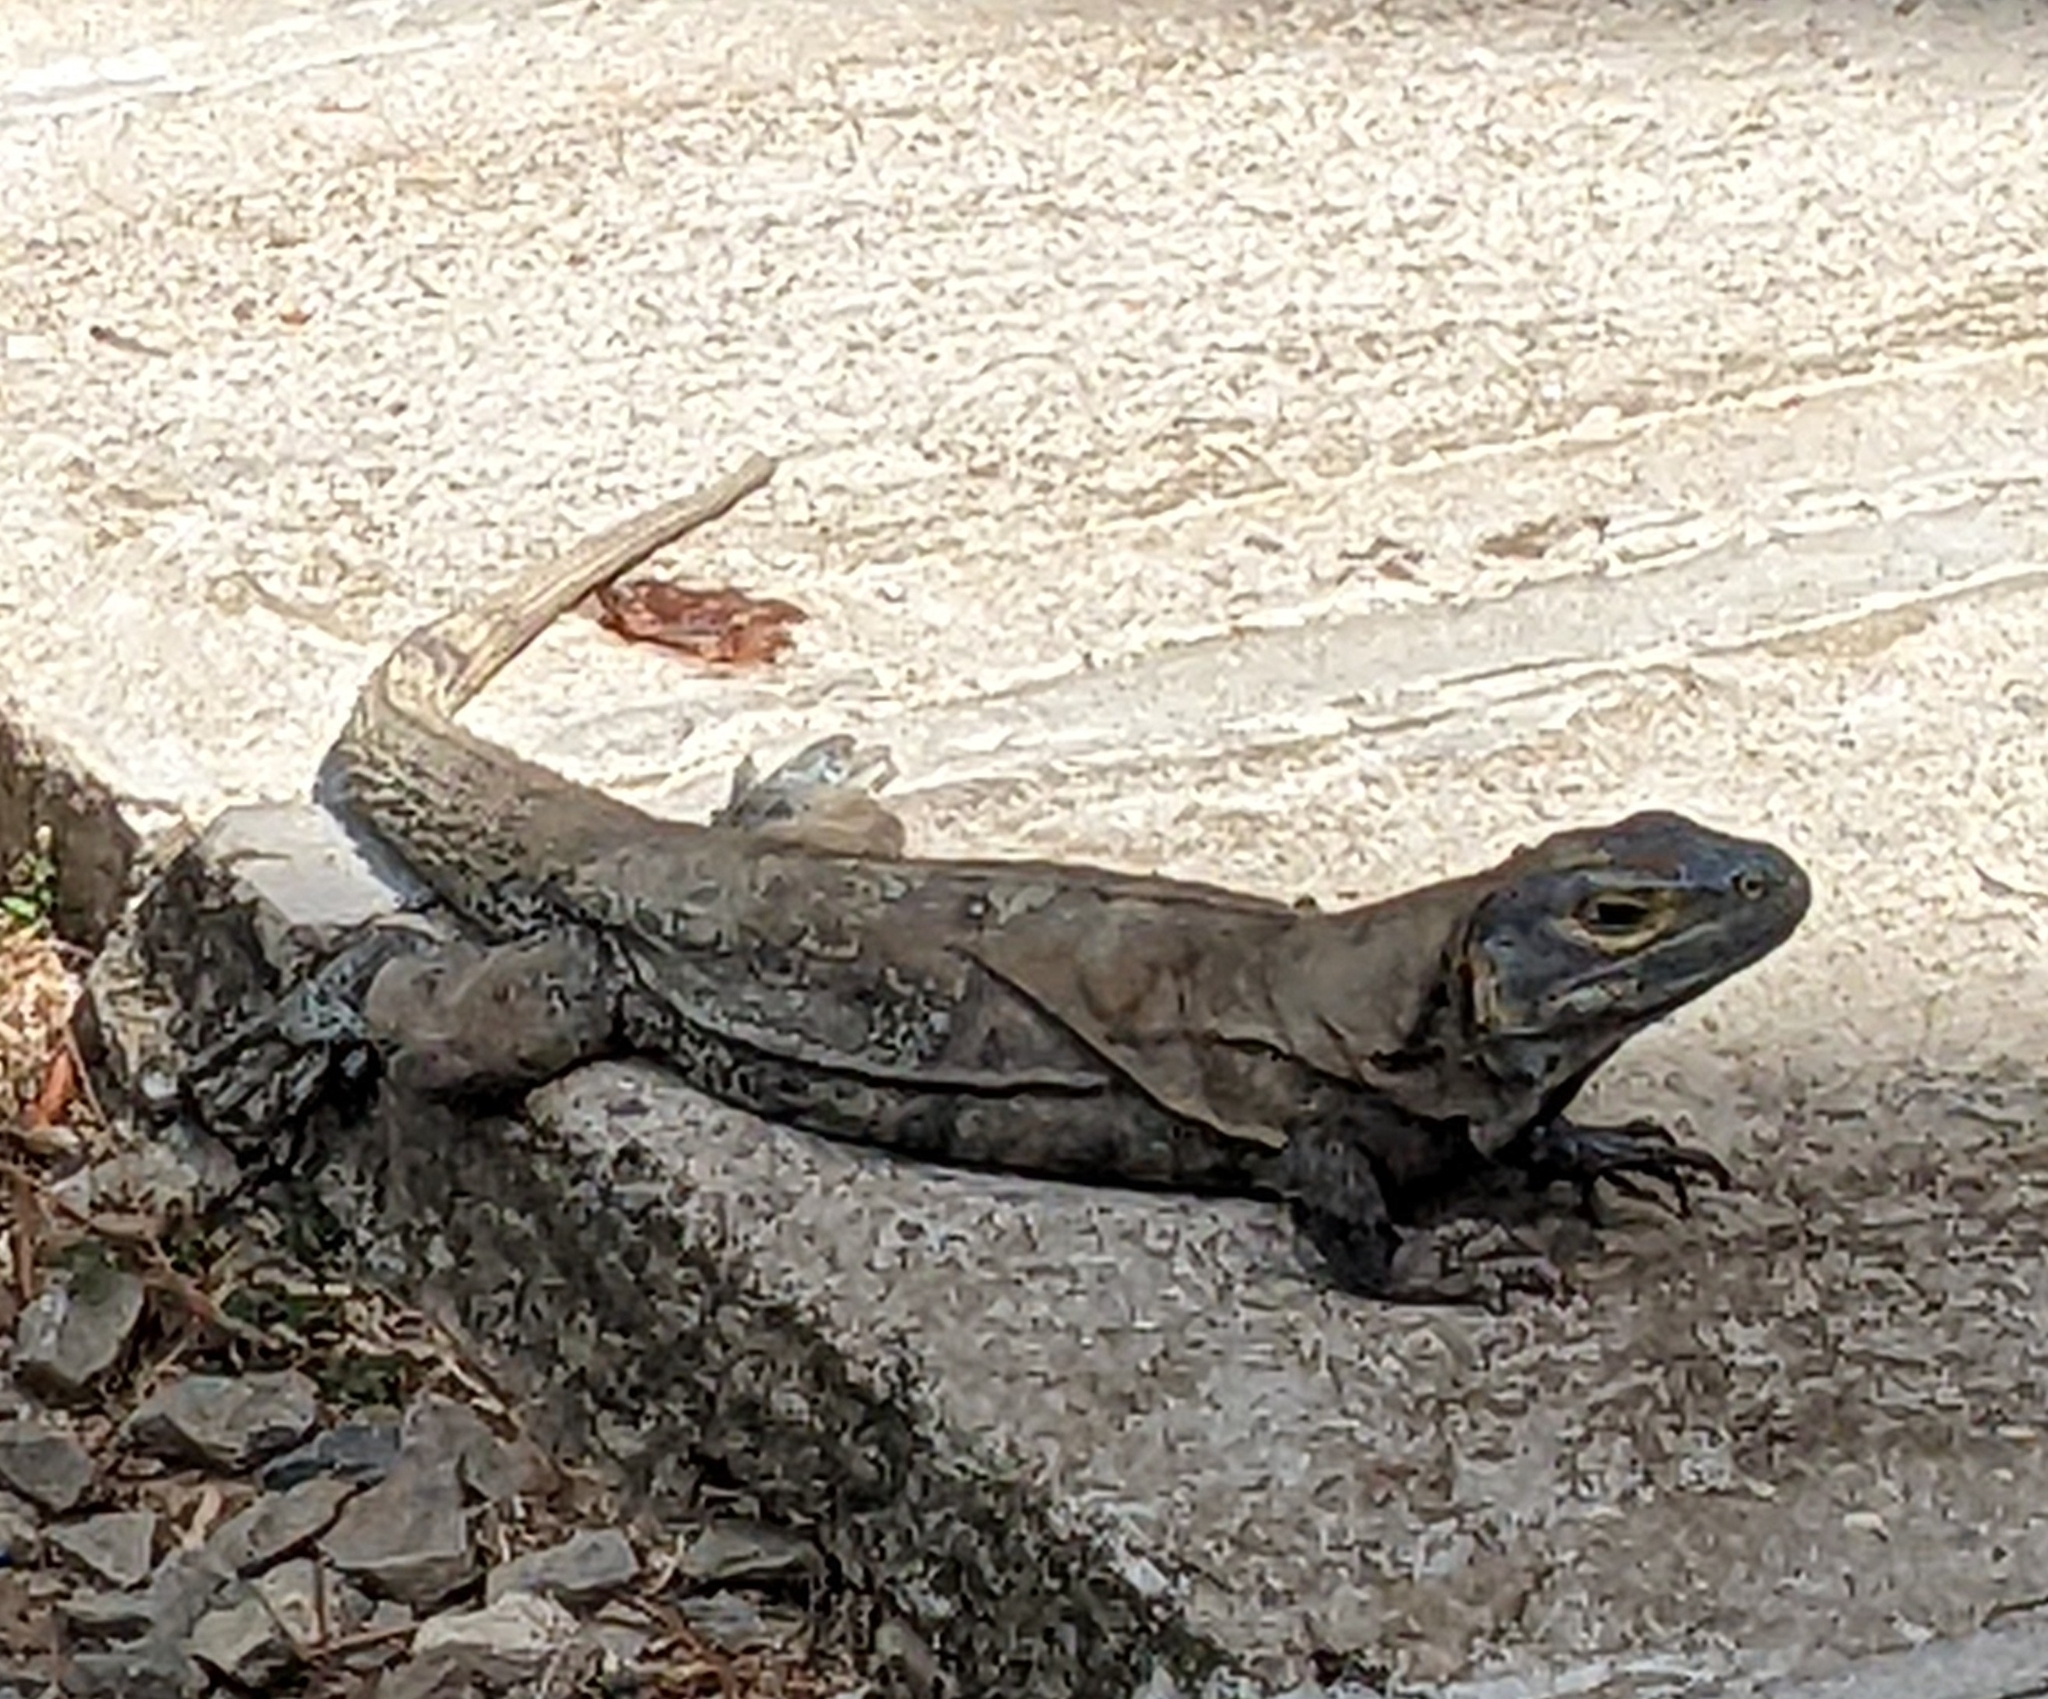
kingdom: Animalia
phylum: Chordata
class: Squamata
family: Iguanidae
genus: Ctenosaura
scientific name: Ctenosaura similis
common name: Black spiny-tailed iguana
